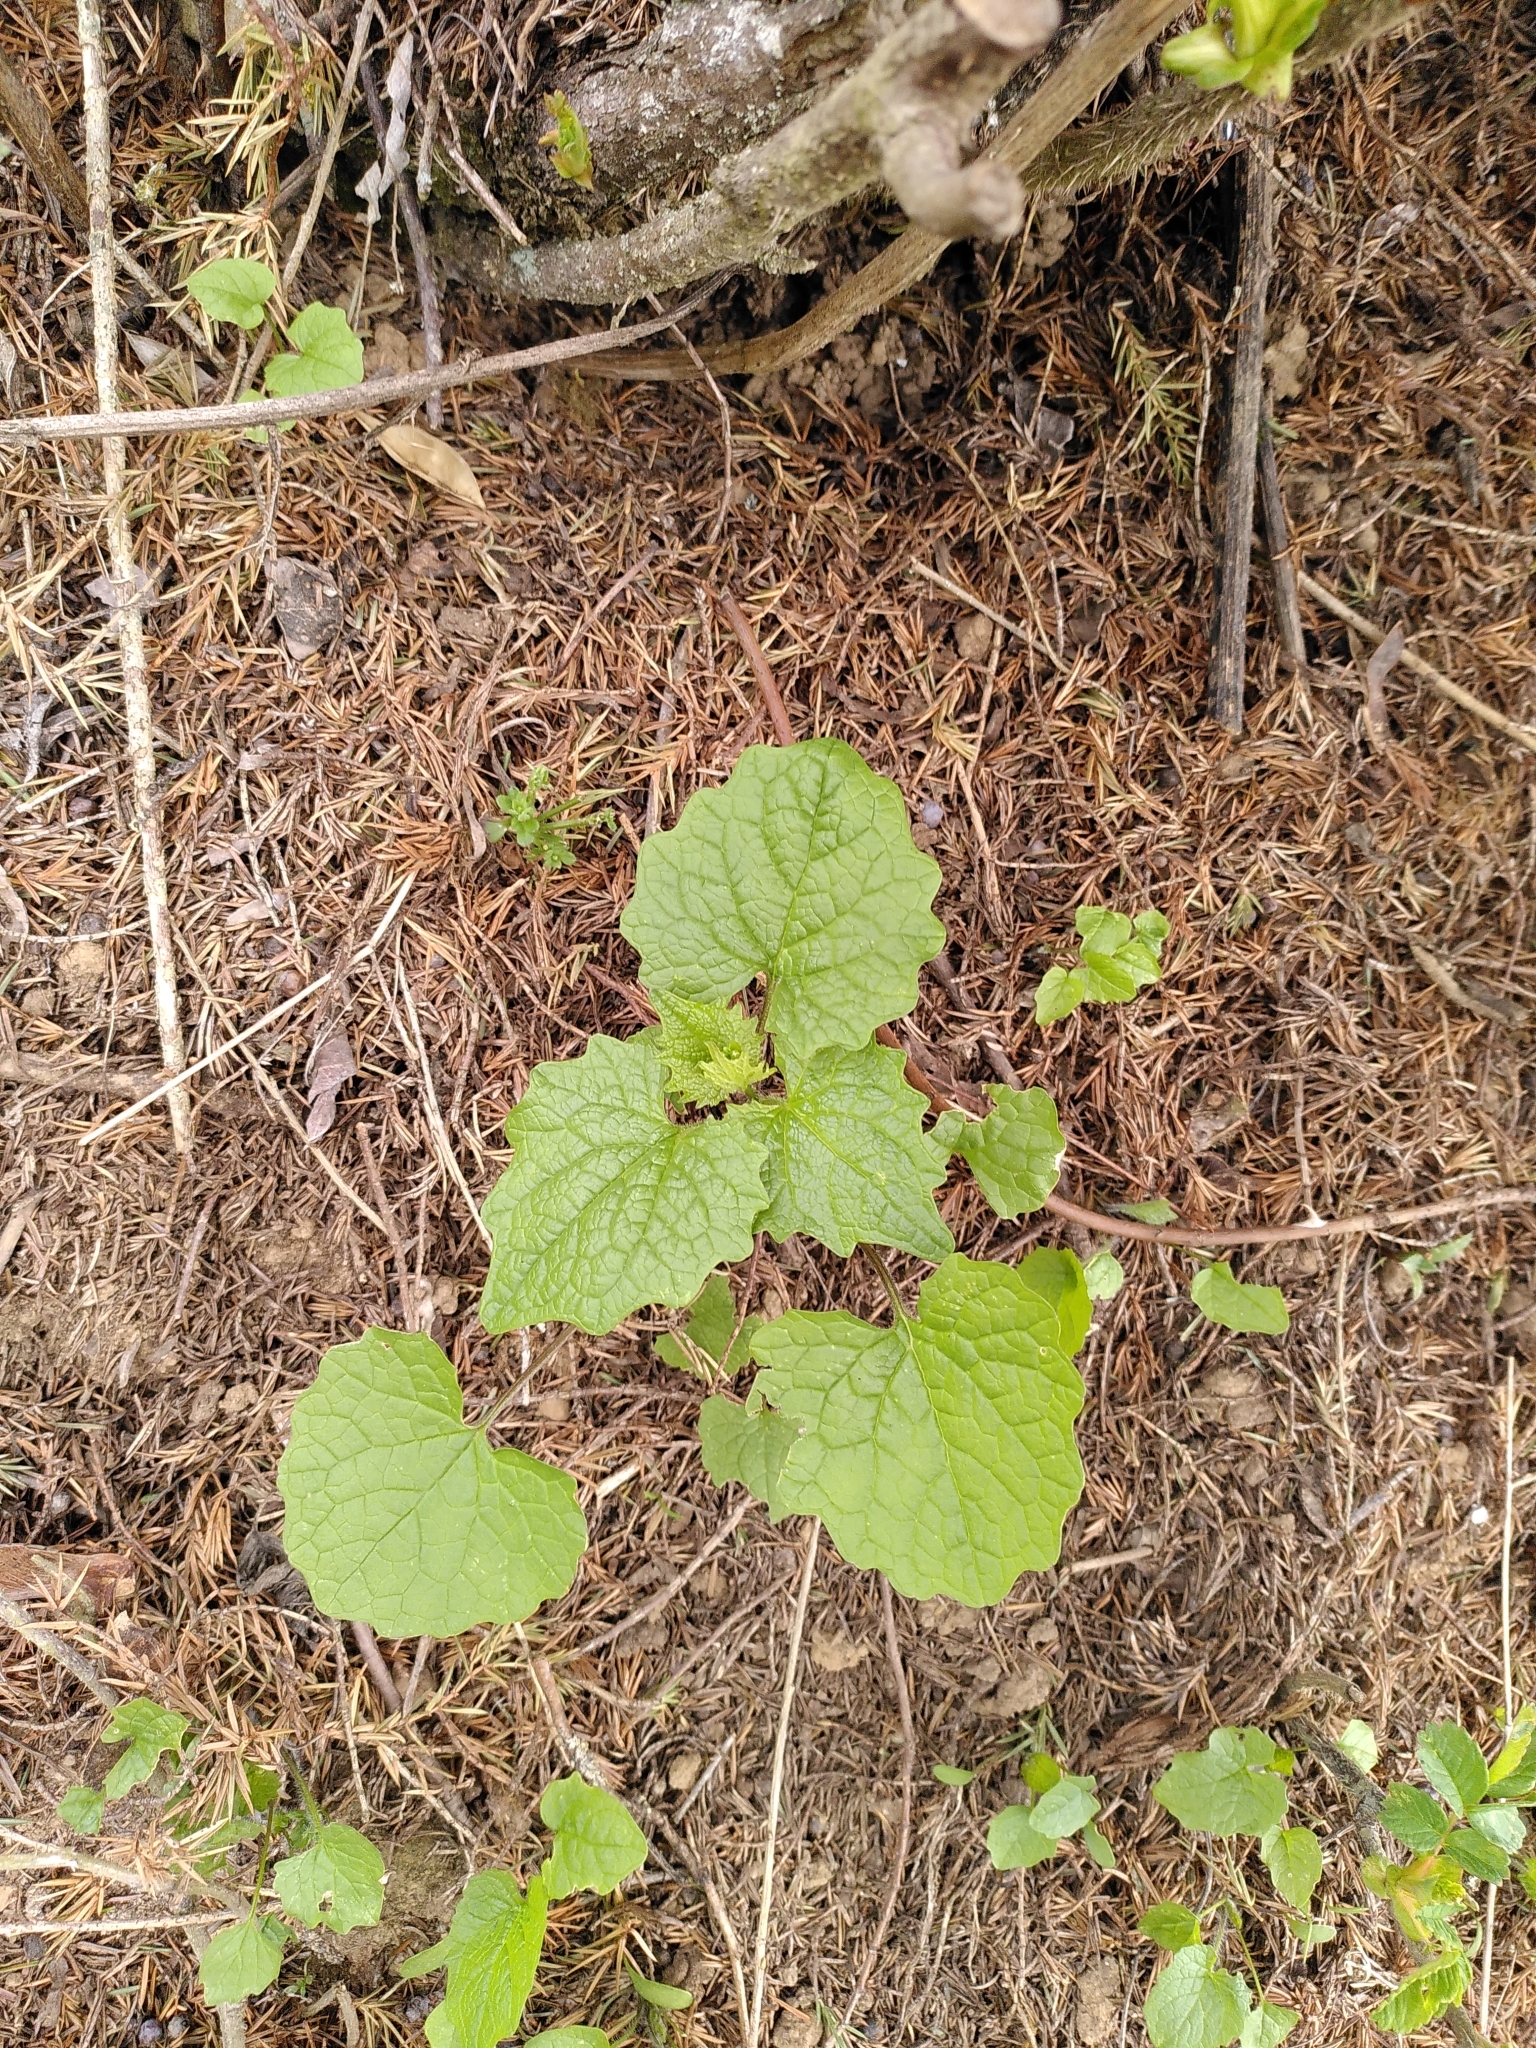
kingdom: Plantae
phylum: Tracheophyta
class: Magnoliopsida
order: Brassicales
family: Brassicaceae
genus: Alliaria
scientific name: Alliaria petiolata
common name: Garlic mustard
